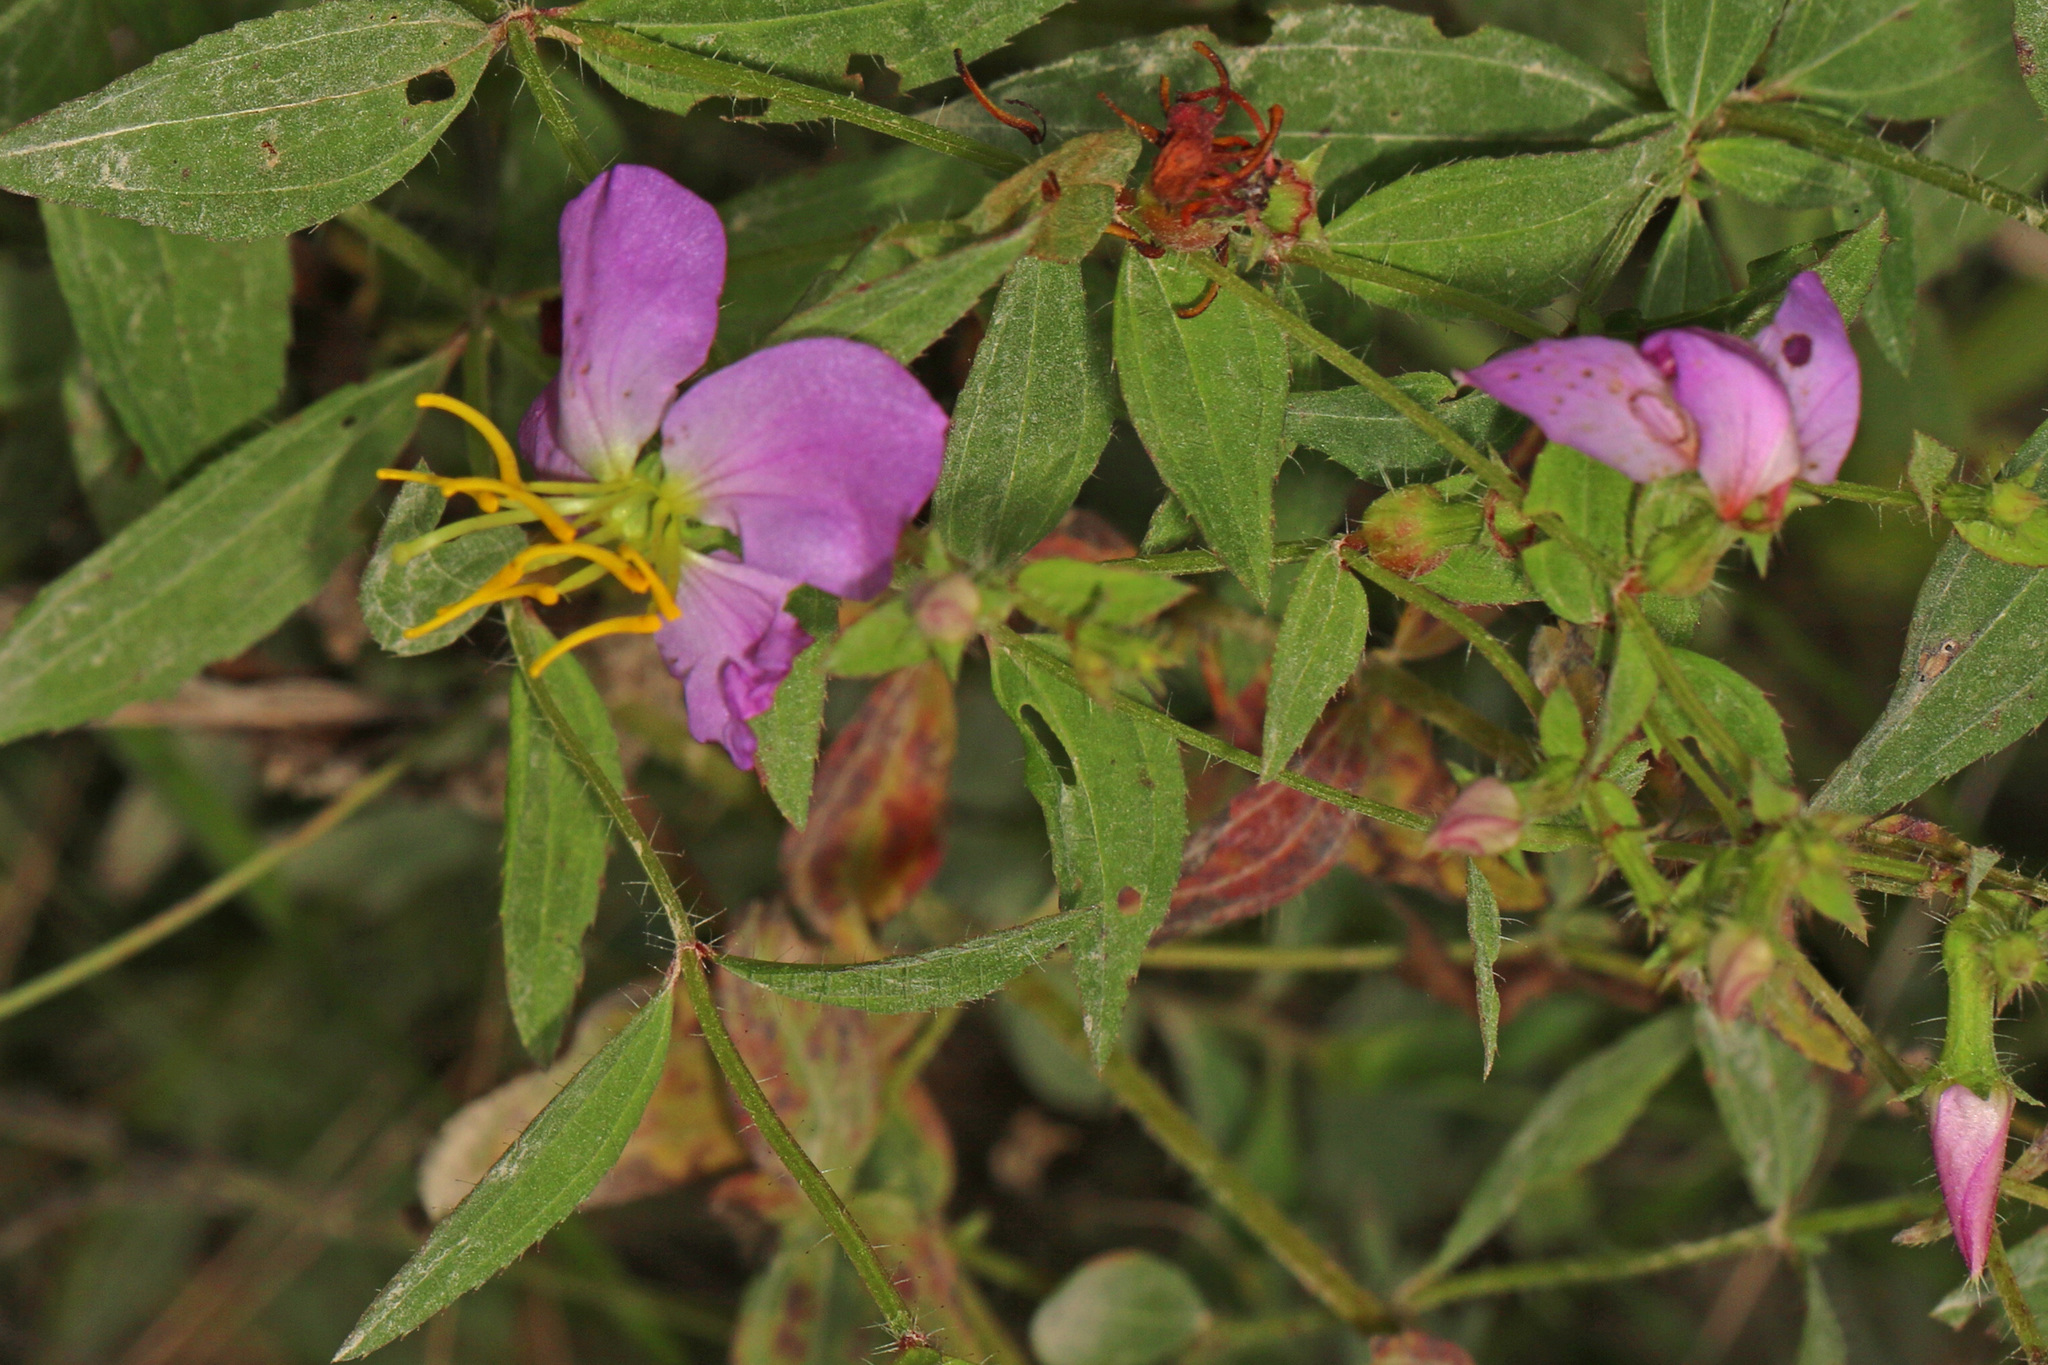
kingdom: Plantae
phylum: Tracheophyta
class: Magnoliopsida
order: Myrtales
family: Melastomataceae
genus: Rhexia
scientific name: Rhexia virginica
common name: Common meadow beauty
